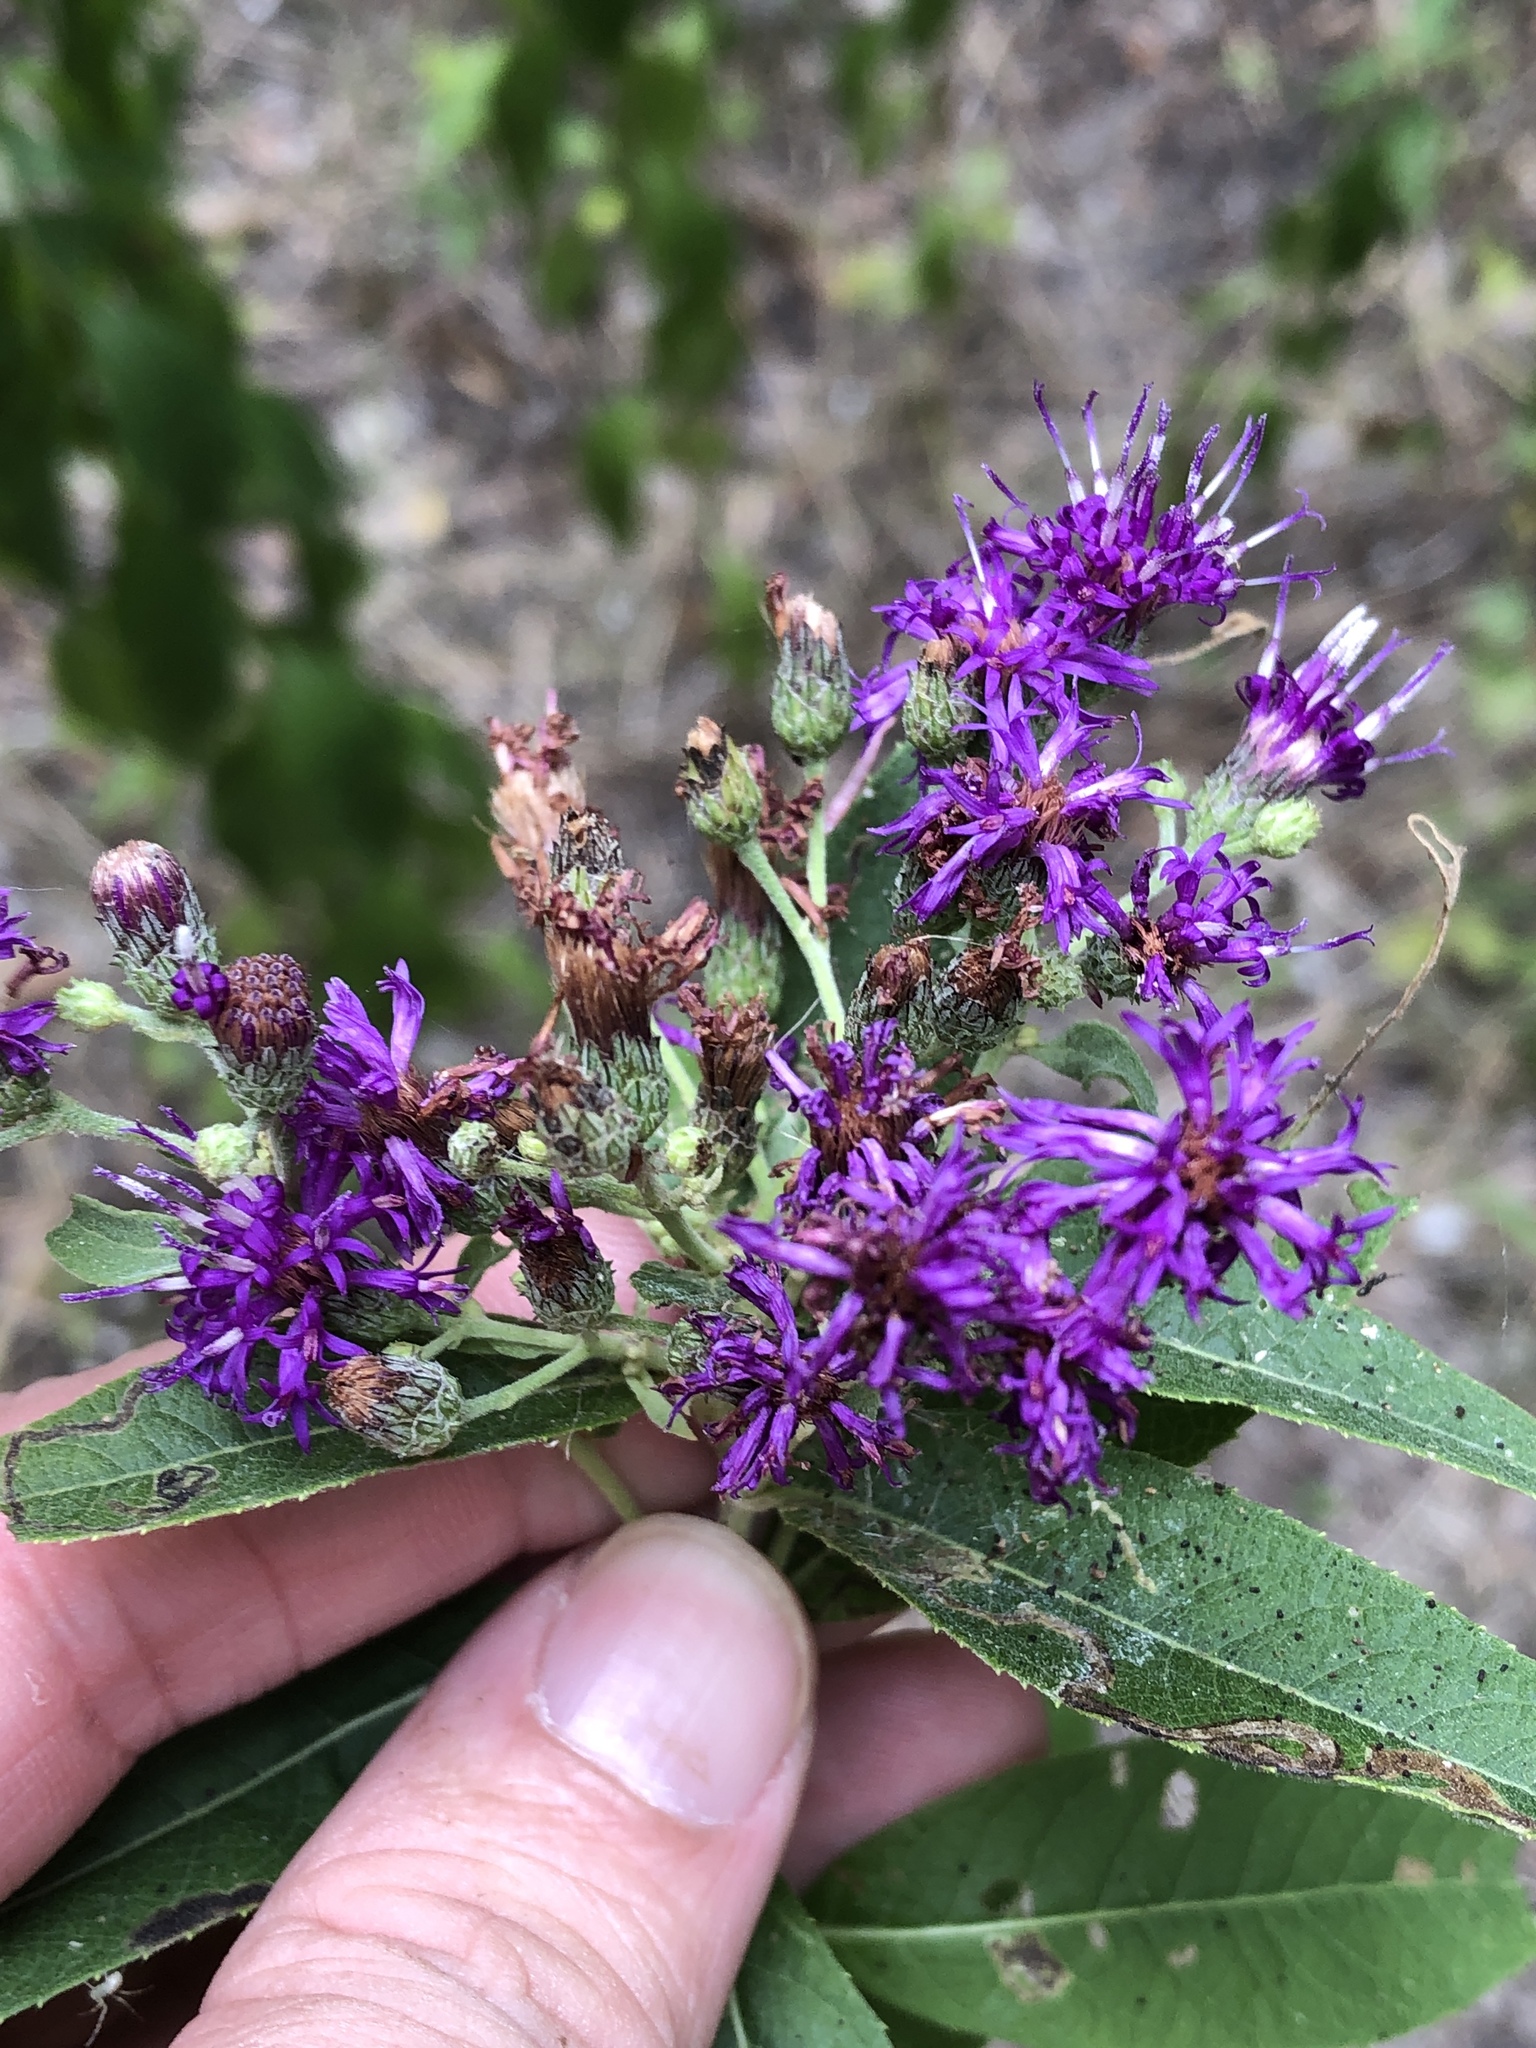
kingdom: Plantae
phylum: Tracheophyta
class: Magnoliopsida
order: Asterales
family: Asteraceae
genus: Vernonia
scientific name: Vernonia baldwinii
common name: Western ironweed
